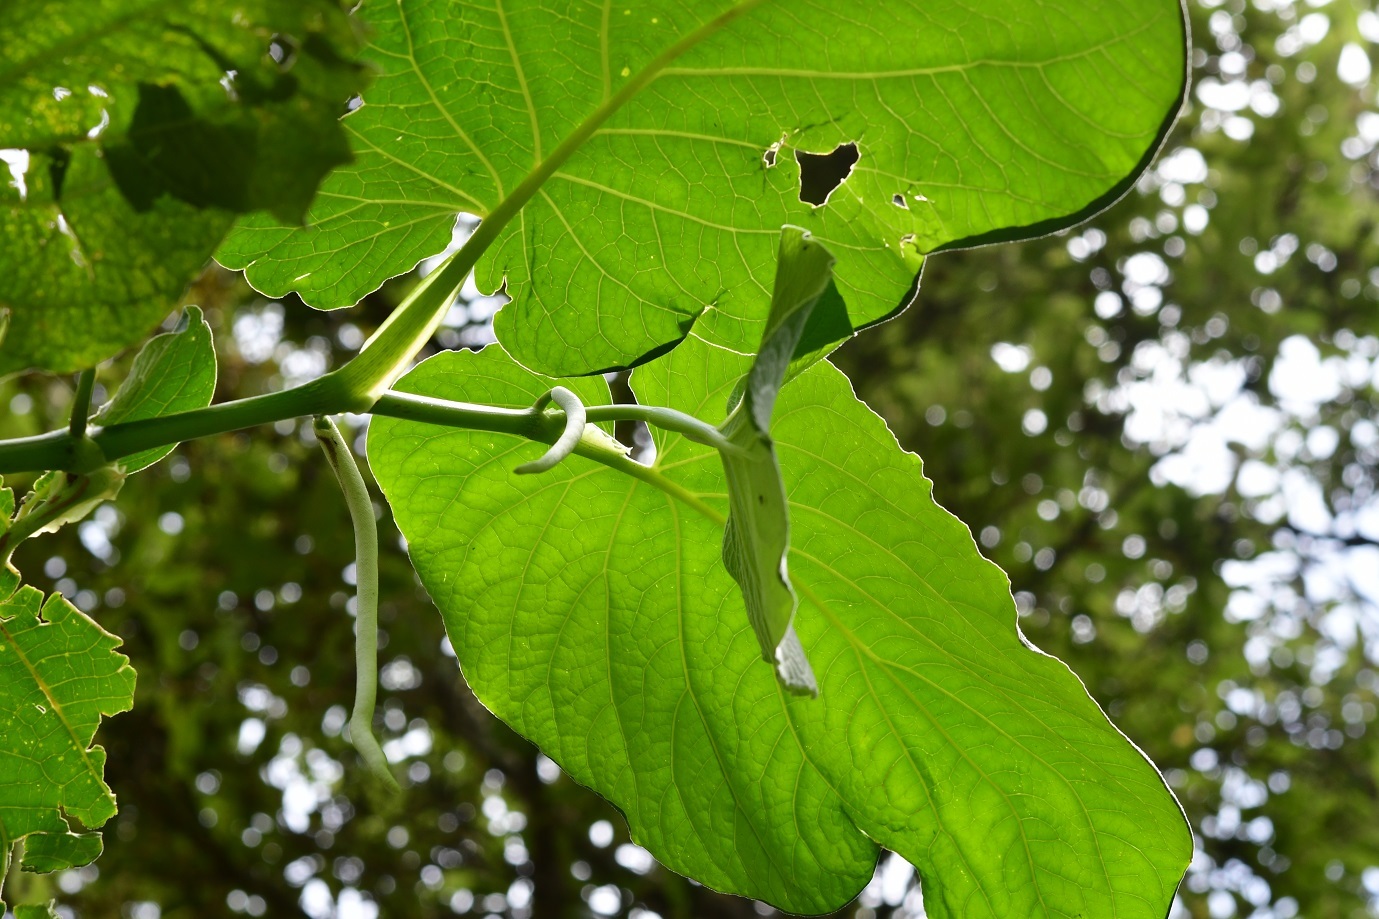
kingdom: Plantae
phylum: Tracheophyta
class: Magnoliopsida
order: Piperales
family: Piperaceae
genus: Piper
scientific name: Piper auritum
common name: Vera cruz pepper
